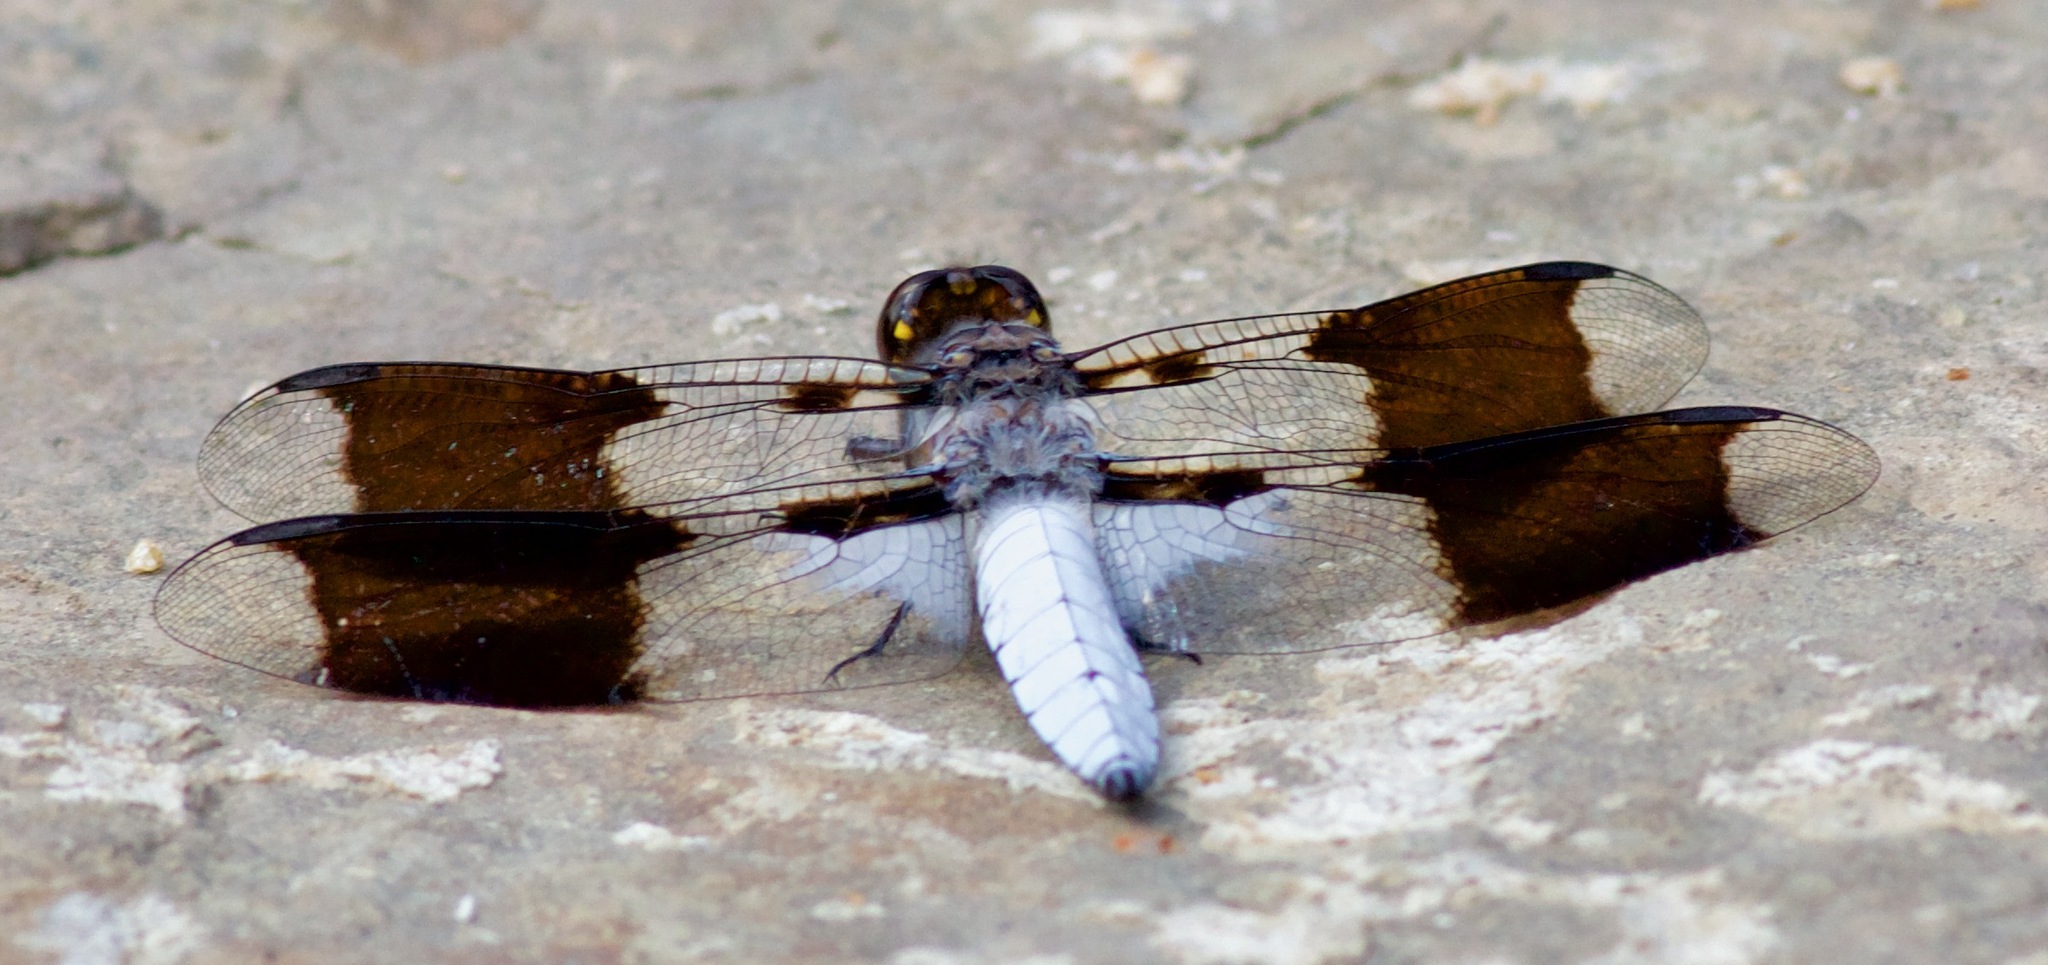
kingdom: Animalia
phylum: Arthropoda
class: Insecta
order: Odonata
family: Libellulidae
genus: Plathemis
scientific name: Plathemis lydia
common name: Common whitetail
